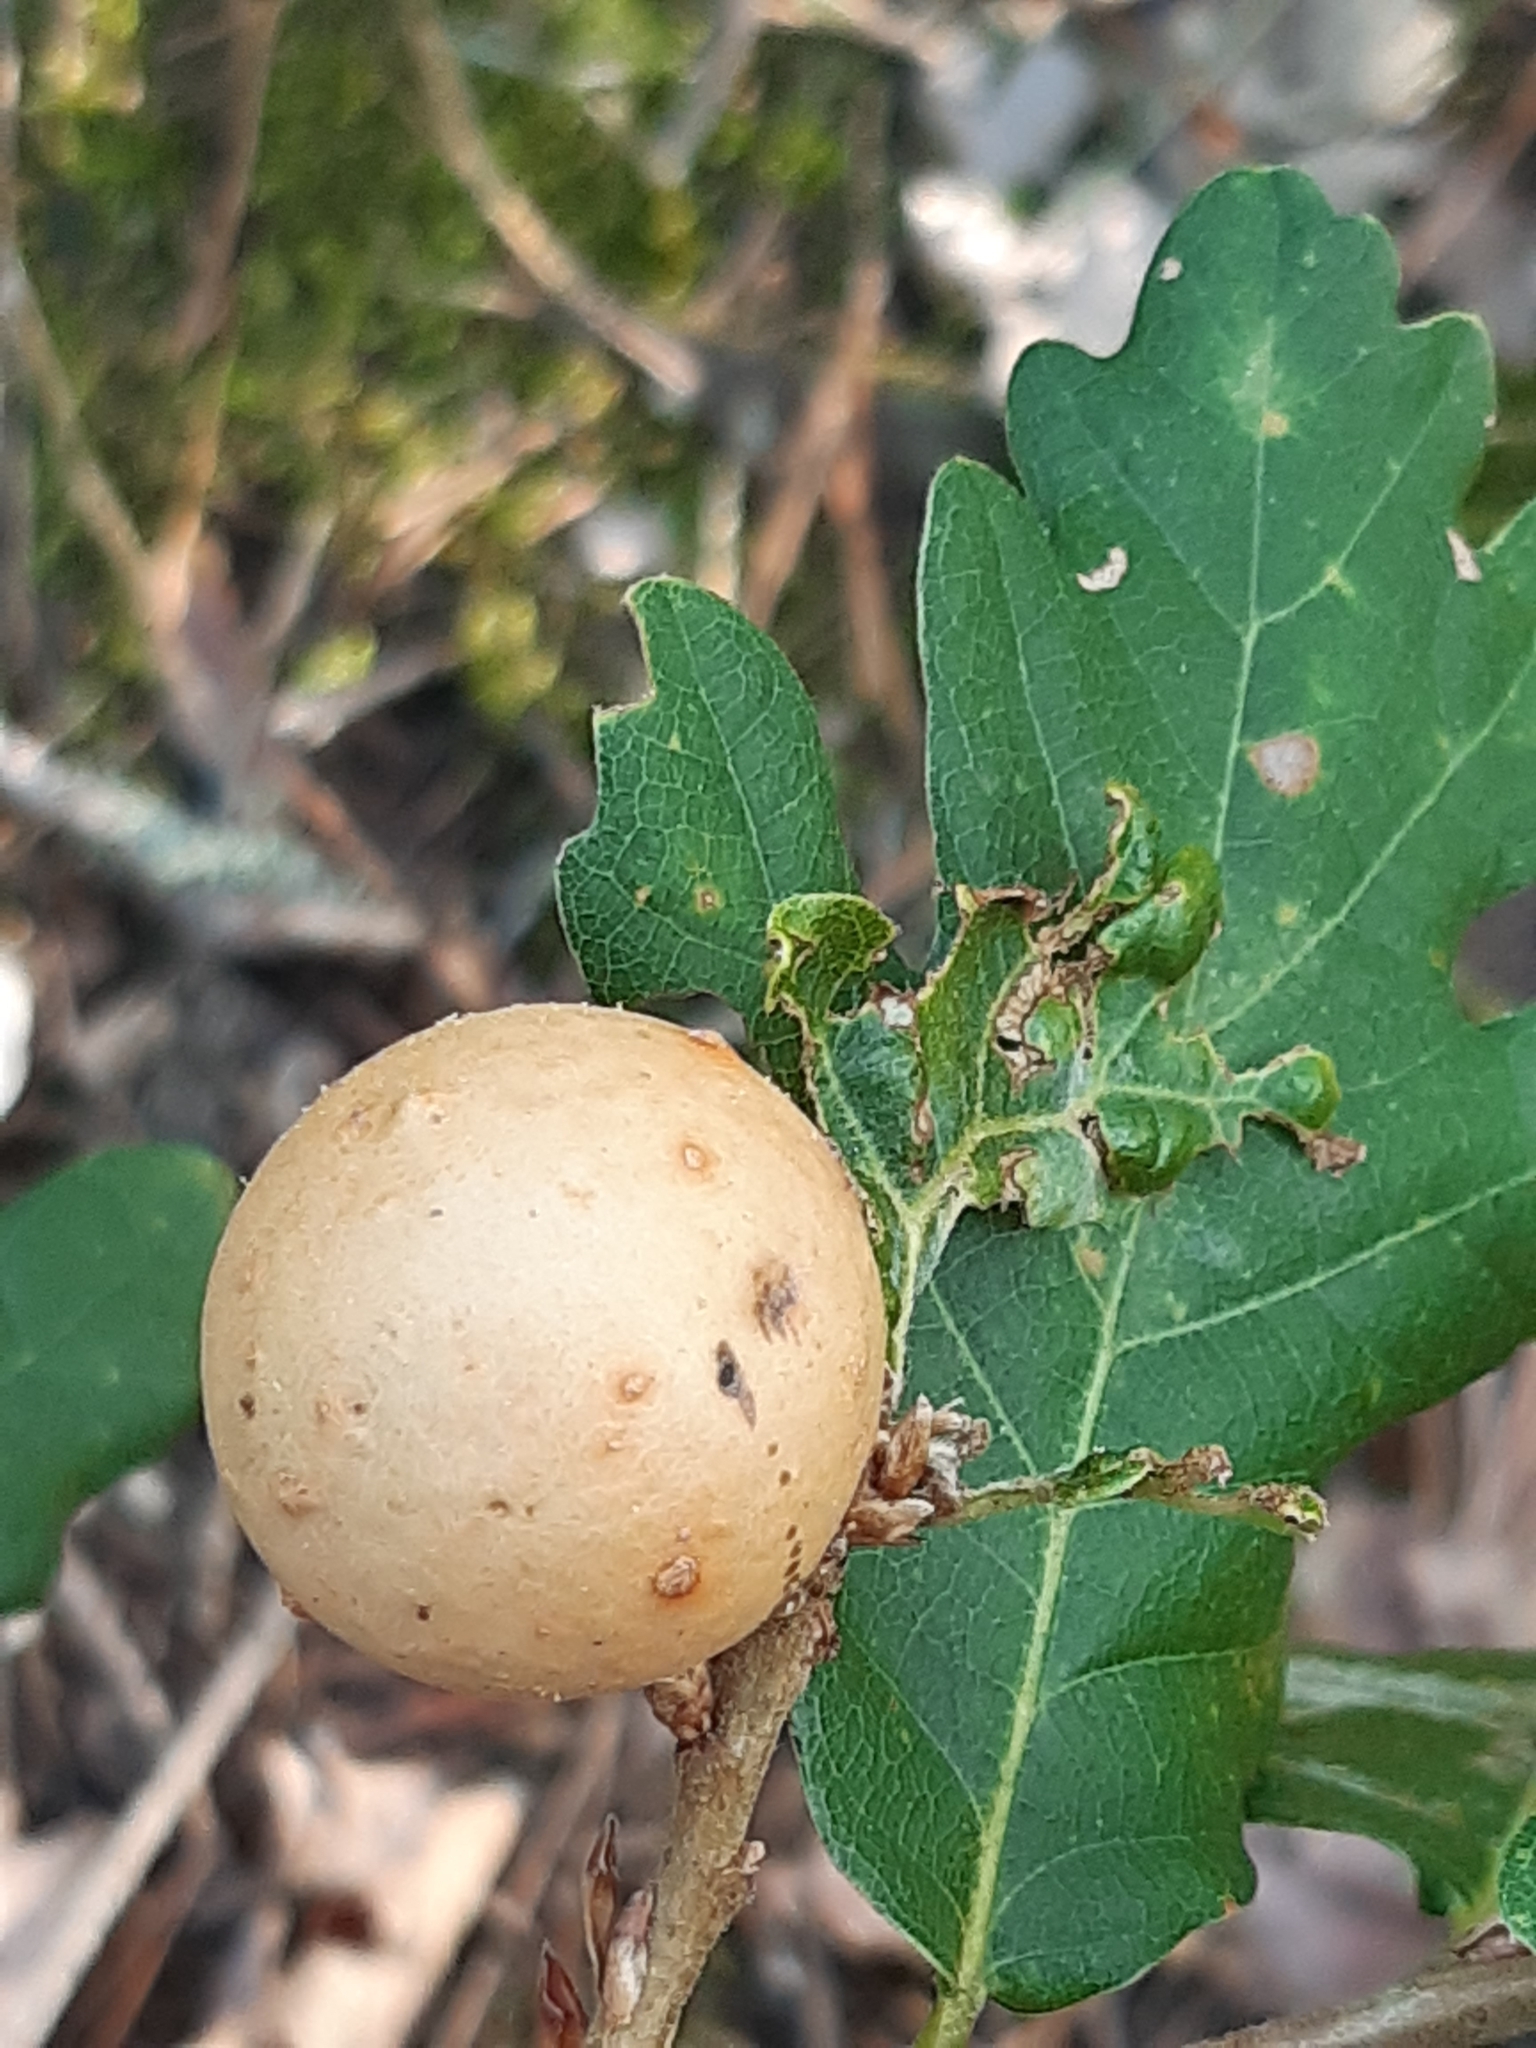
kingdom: Animalia
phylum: Arthropoda
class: Insecta
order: Hymenoptera
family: Cynipidae
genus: Andricus
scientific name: Andricus kollari
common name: Marble gall
